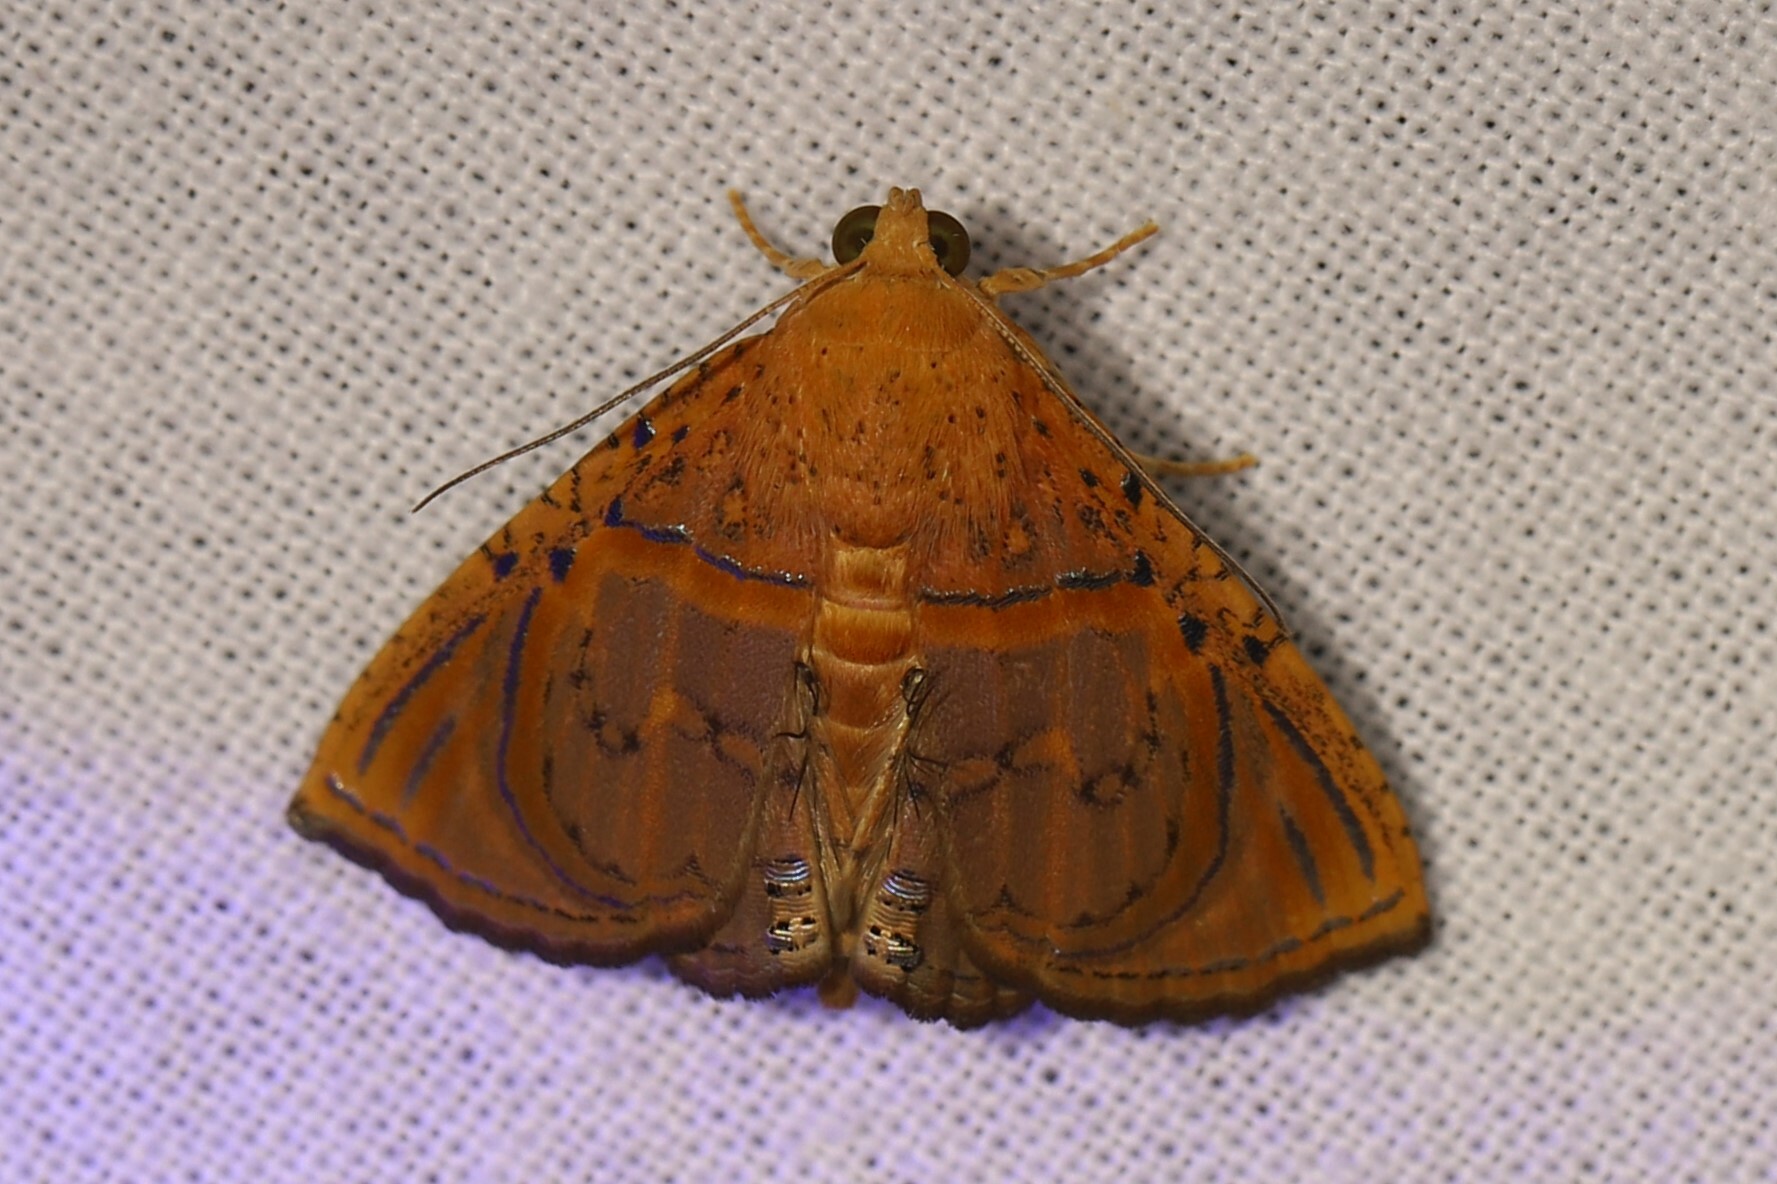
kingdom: Animalia
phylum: Arthropoda
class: Insecta
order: Lepidoptera
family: Erebidae
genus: Calydia
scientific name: Calydia bourgaulti
